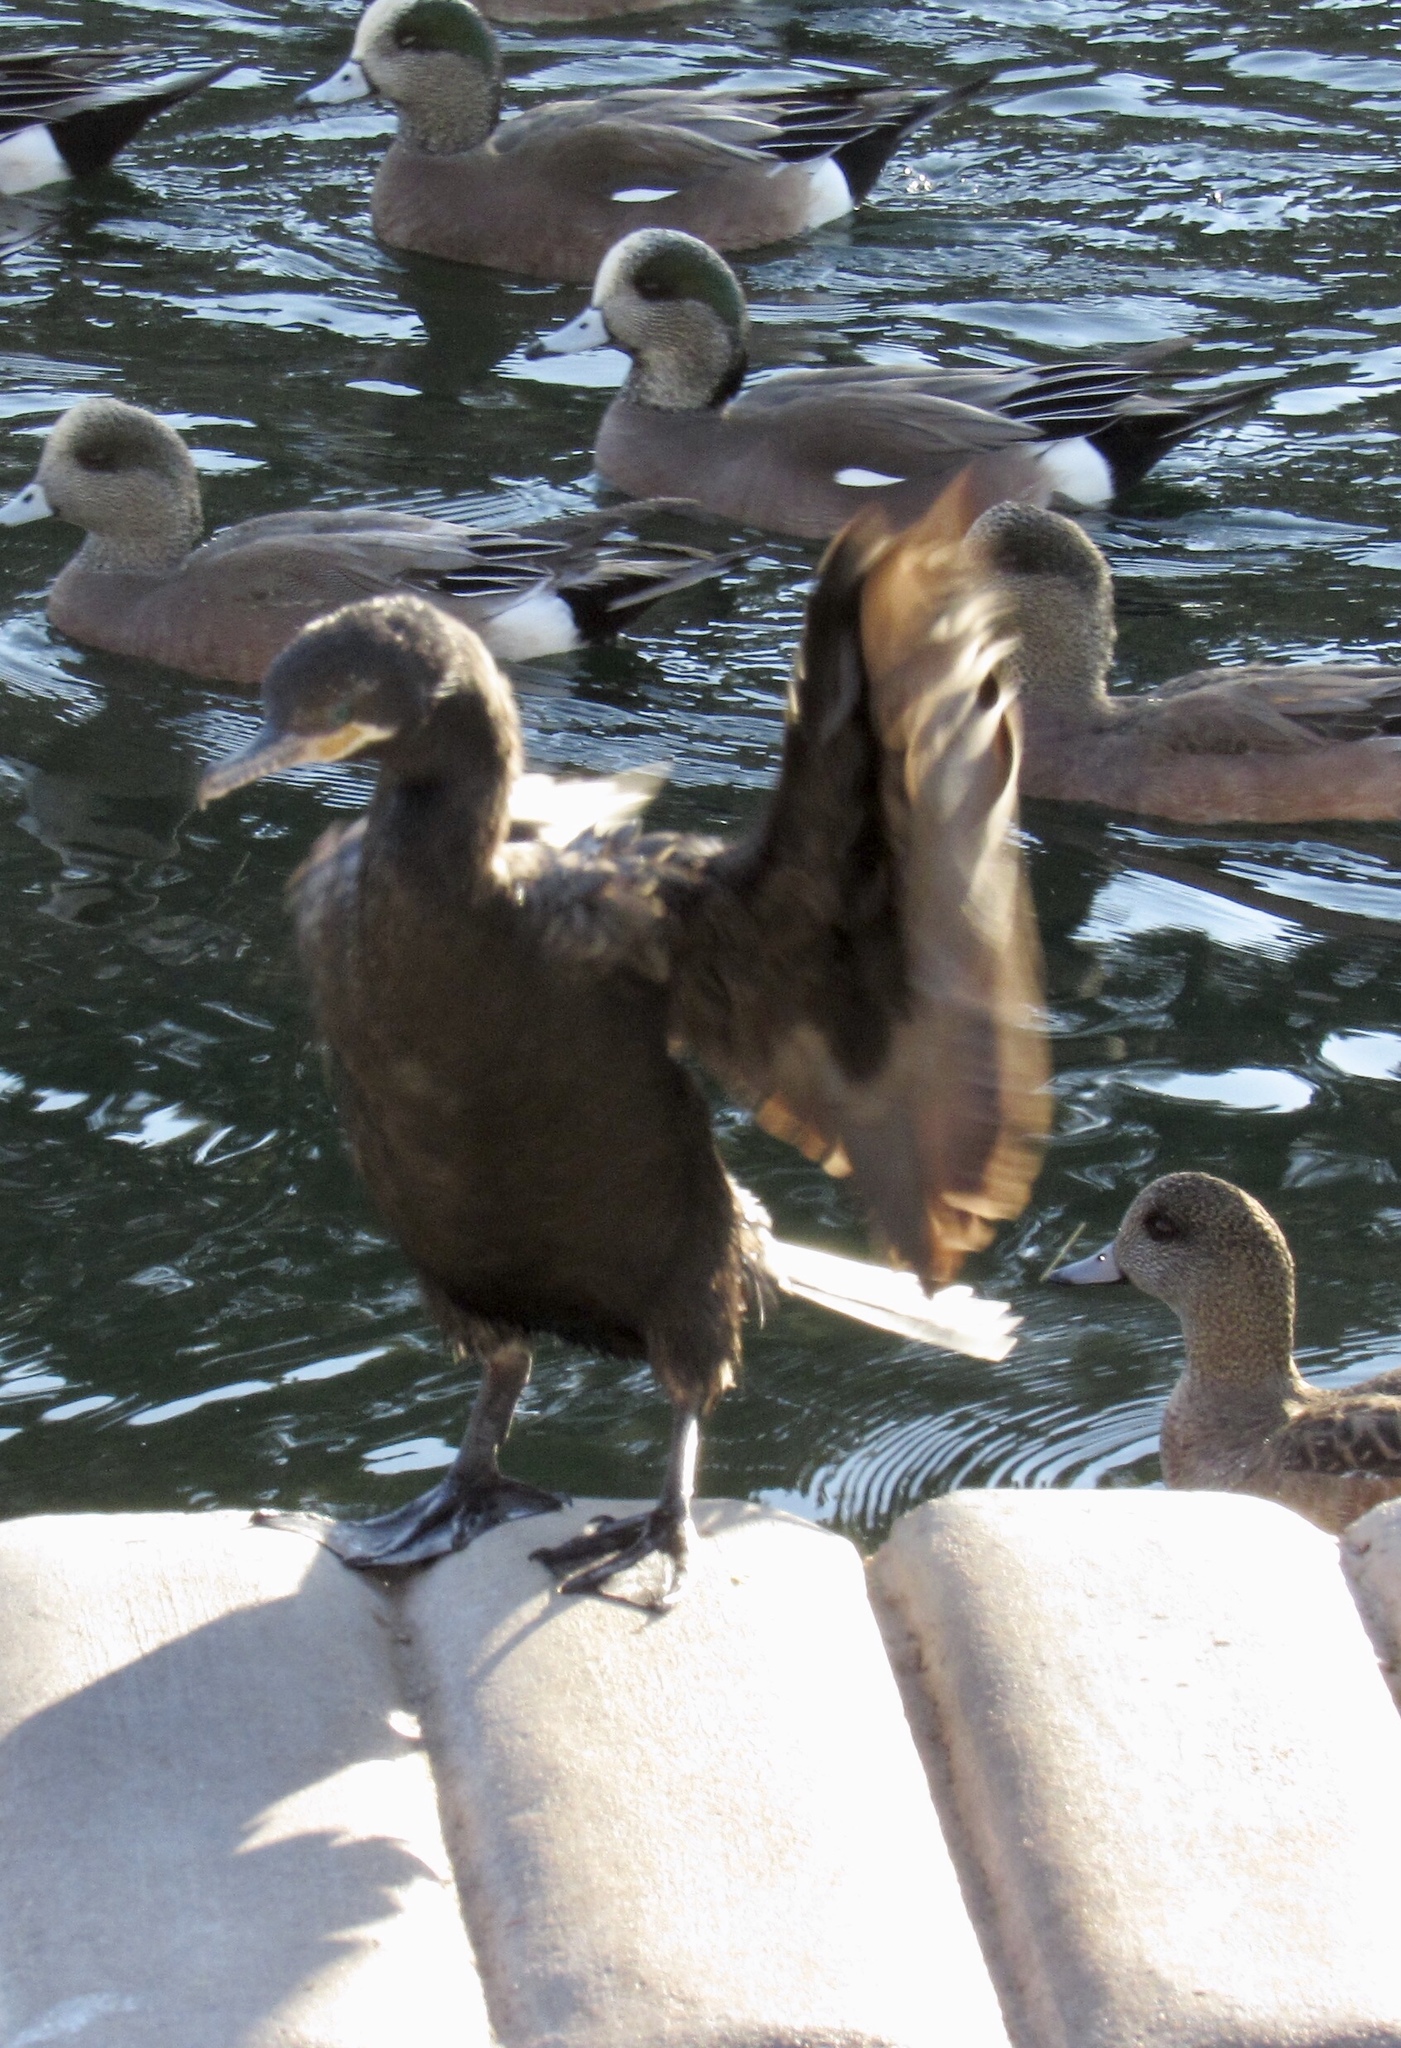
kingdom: Animalia
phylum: Chordata
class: Aves
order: Suliformes
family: Phalacrocoracidae
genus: Phalacrocorax
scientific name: Phalacrocorax brasilianus
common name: Neotropic cormorant
